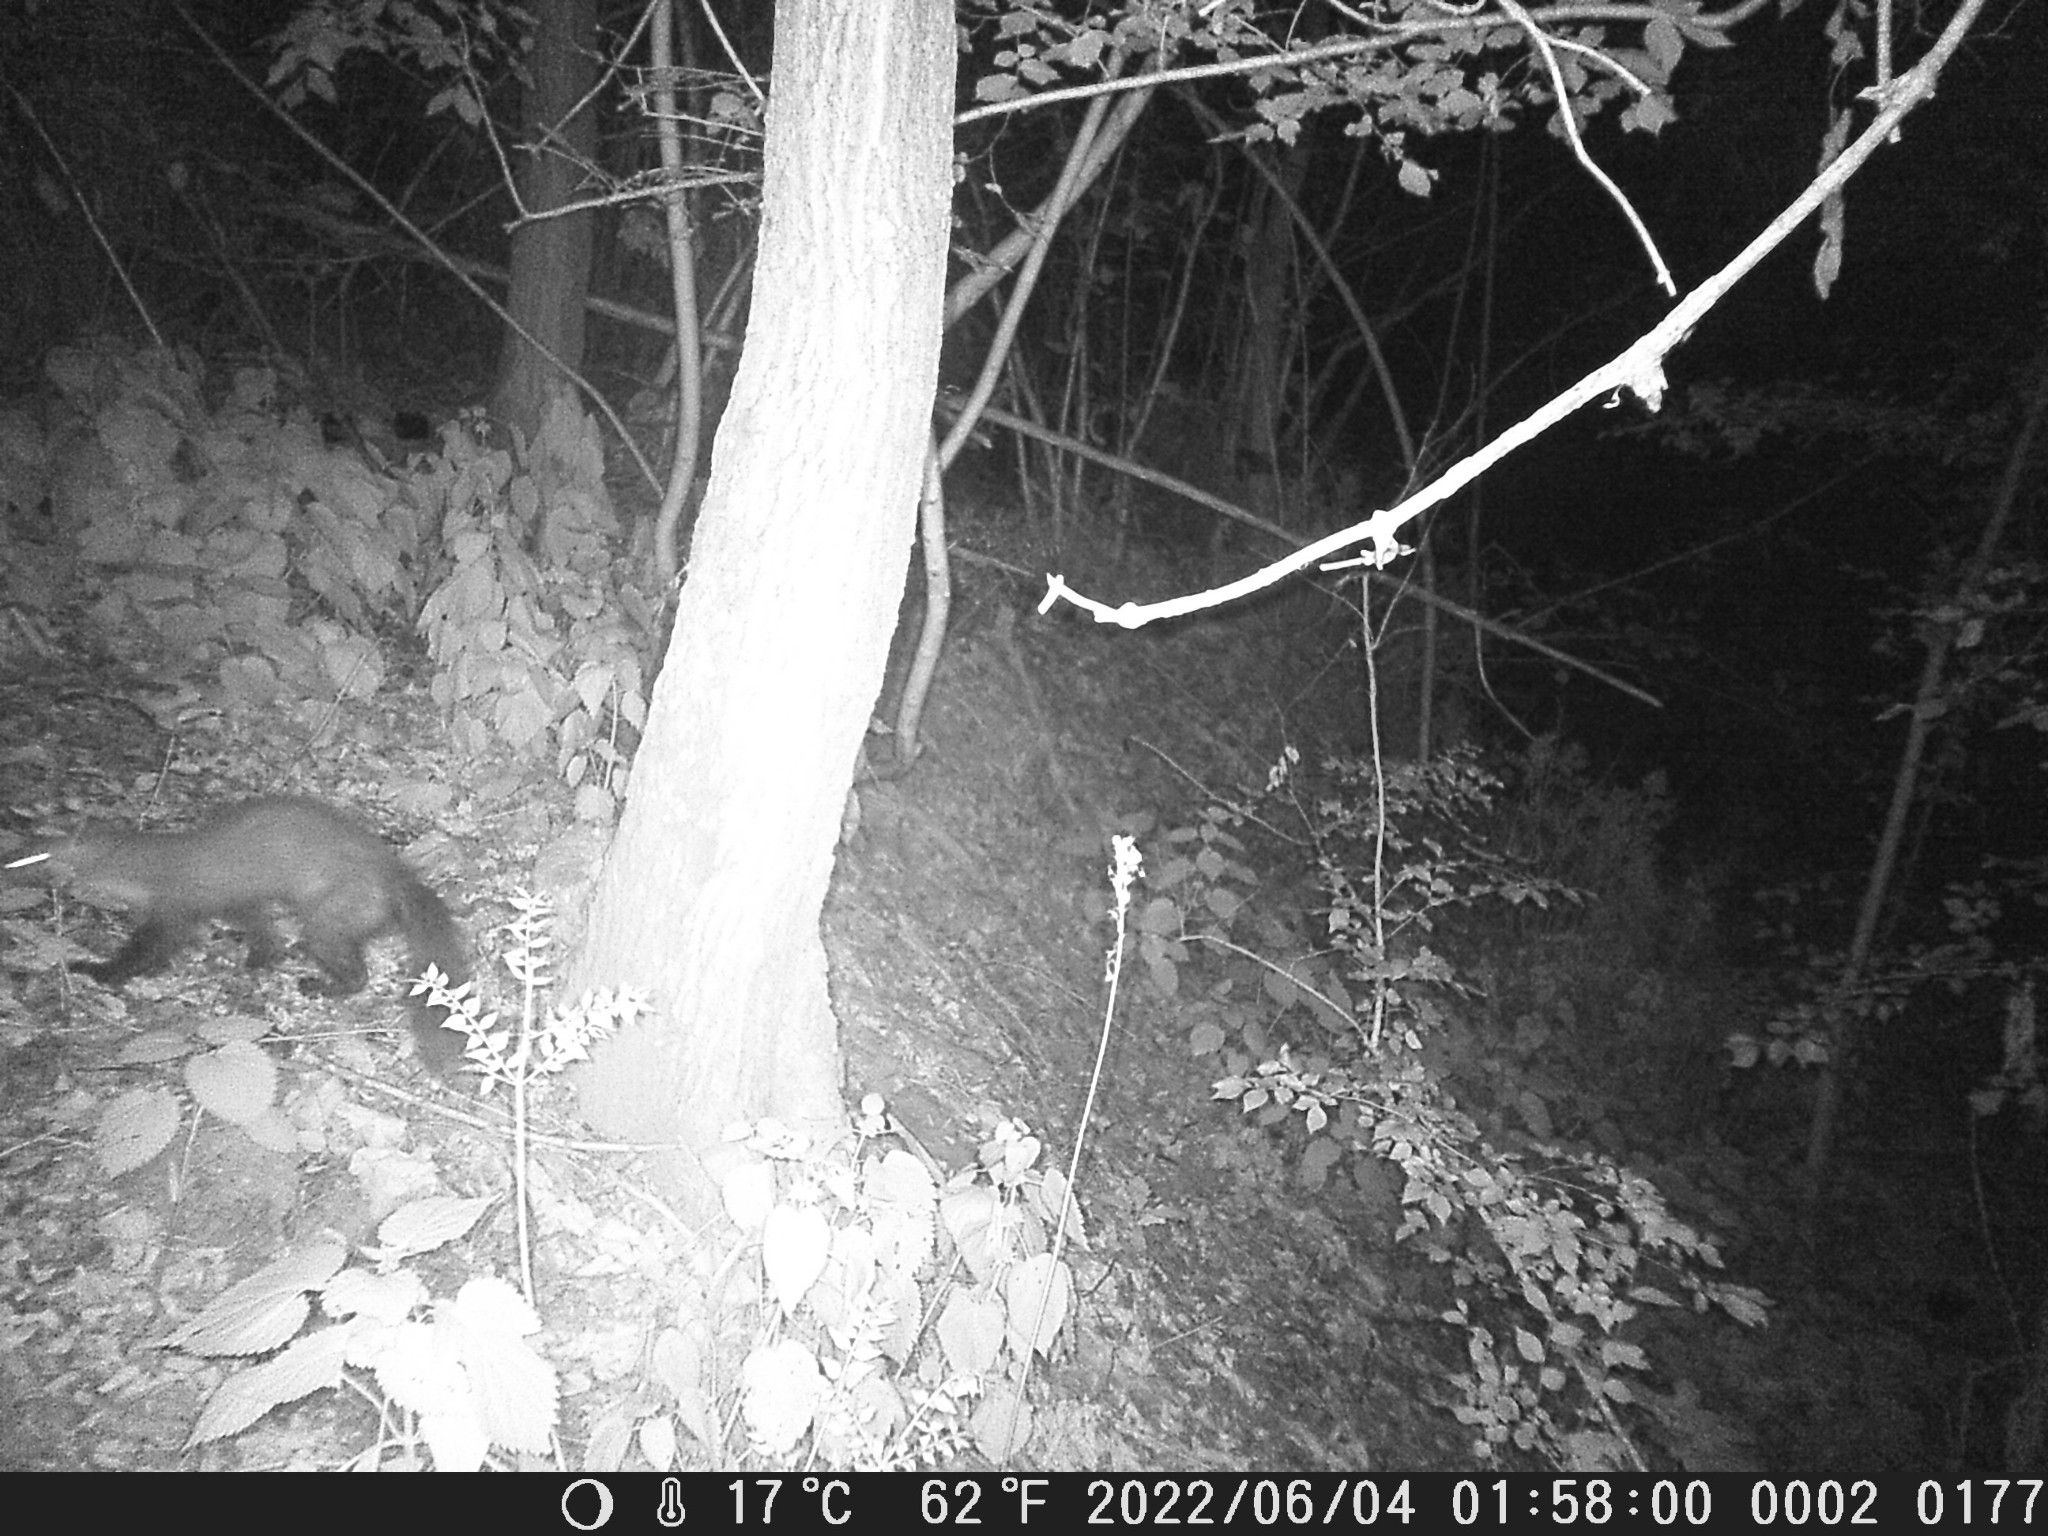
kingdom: Animalia
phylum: Chordata
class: Mammalia
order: Carnivora
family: Mustelidae
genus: Martes
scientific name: Martes foina
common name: Beech marten
